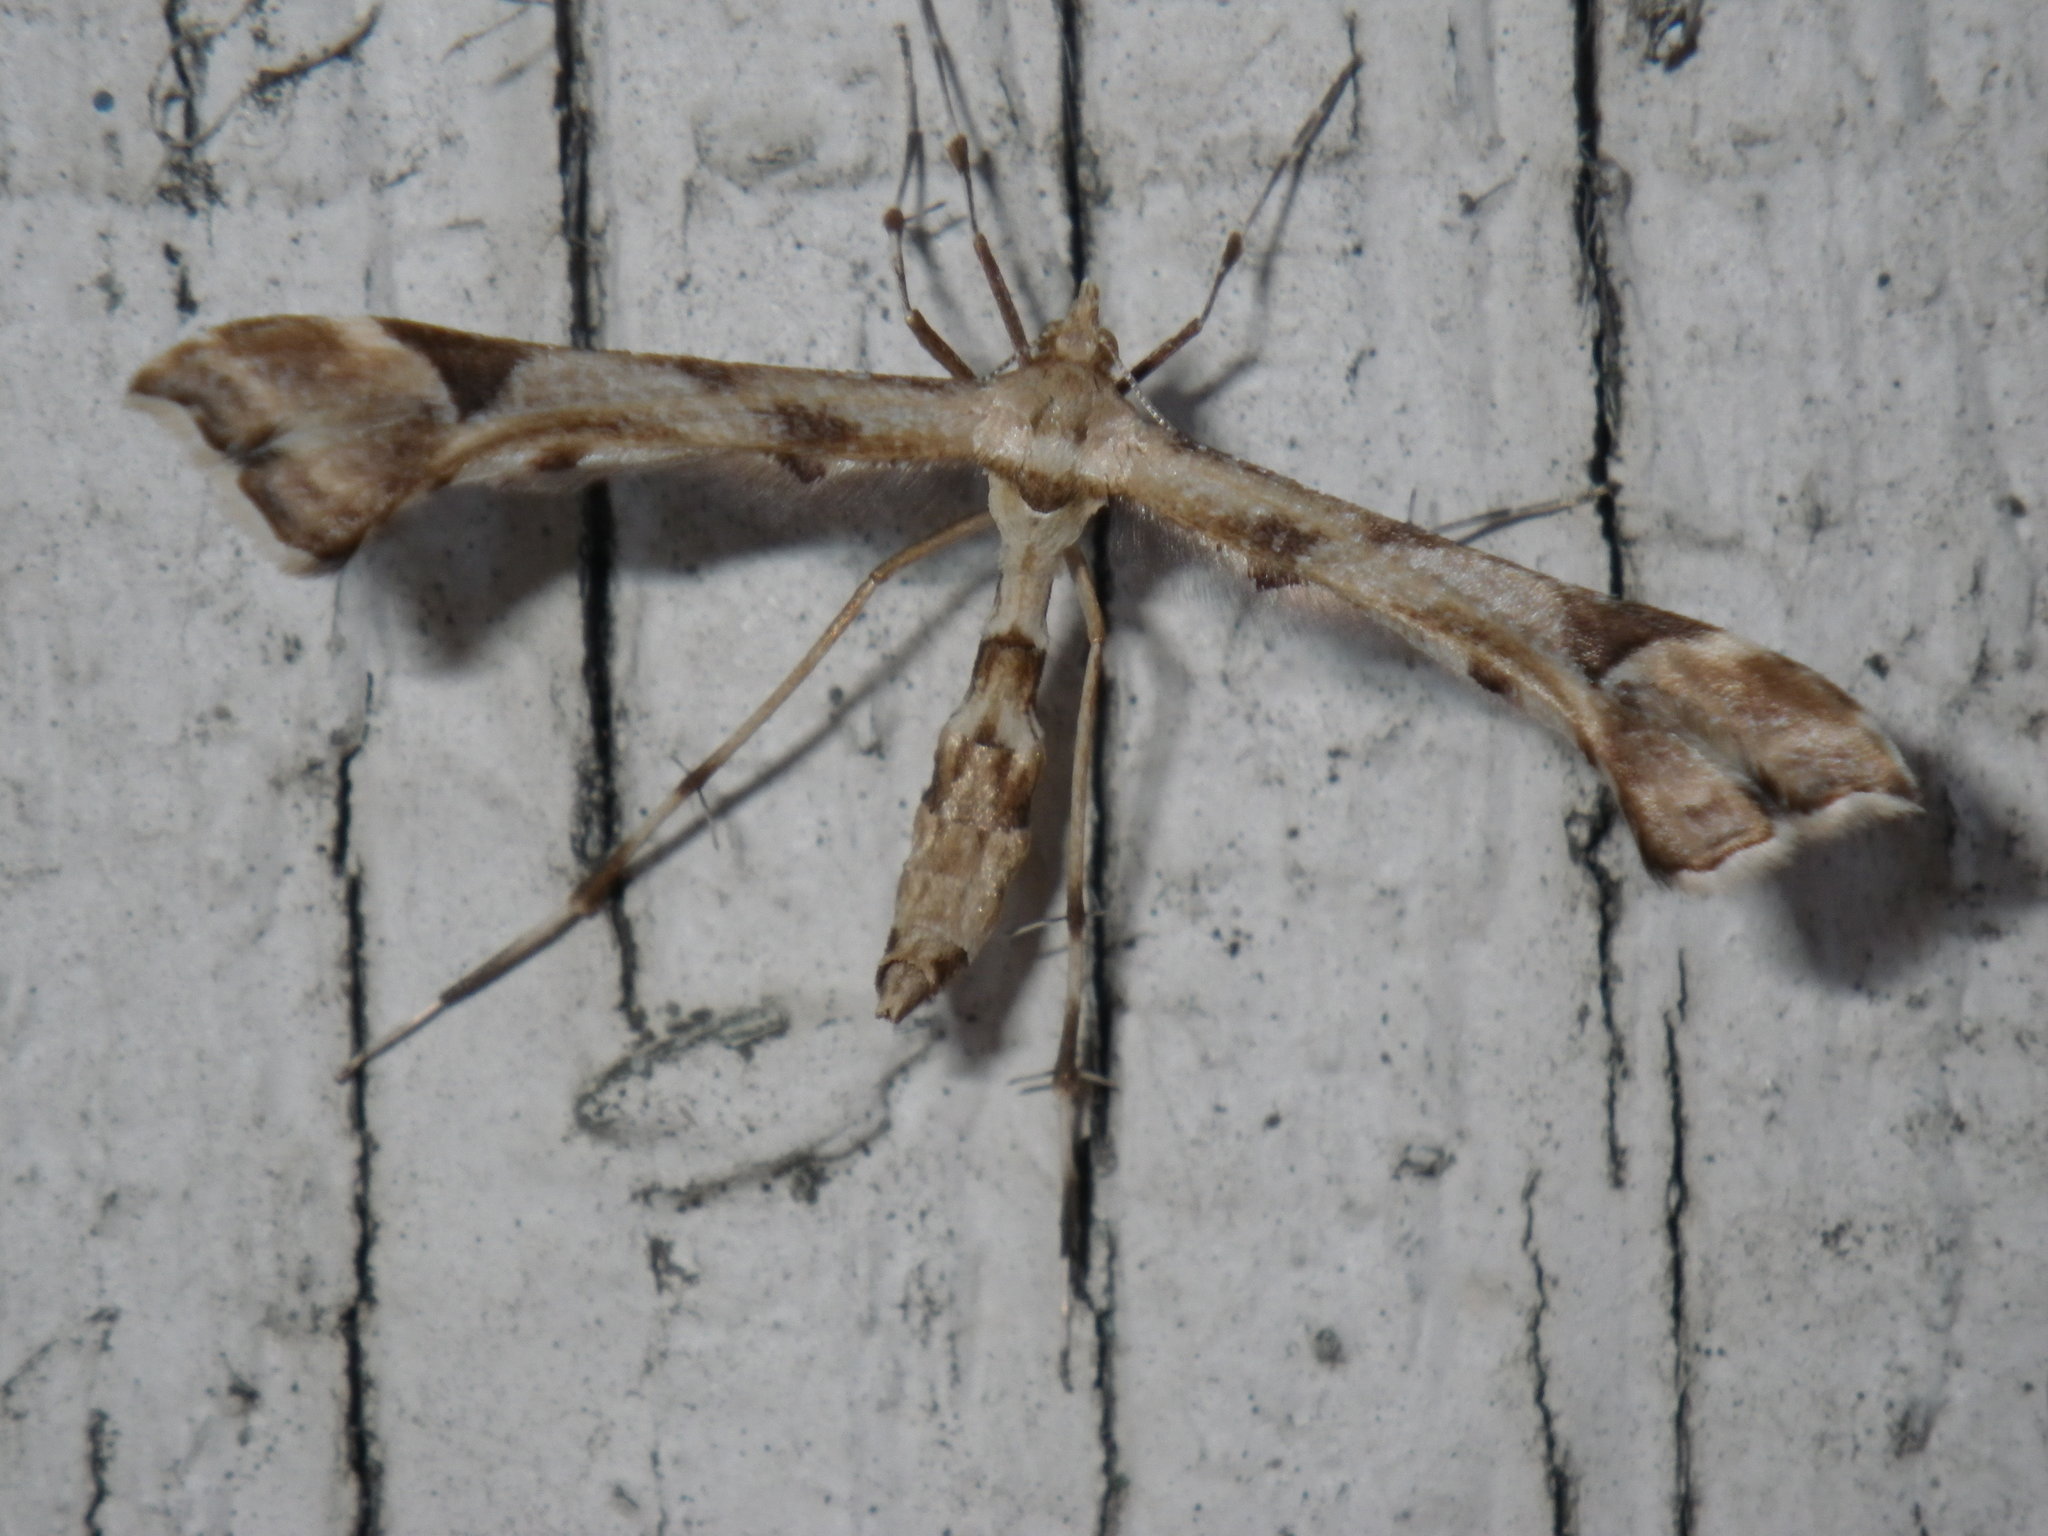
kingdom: Animalia
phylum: Arthropoda
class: Insecta
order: Lepidoptera
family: Pterophoridae
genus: Platyptilia
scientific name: Platyptilia carduidactylus
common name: Artichoke plume moth
